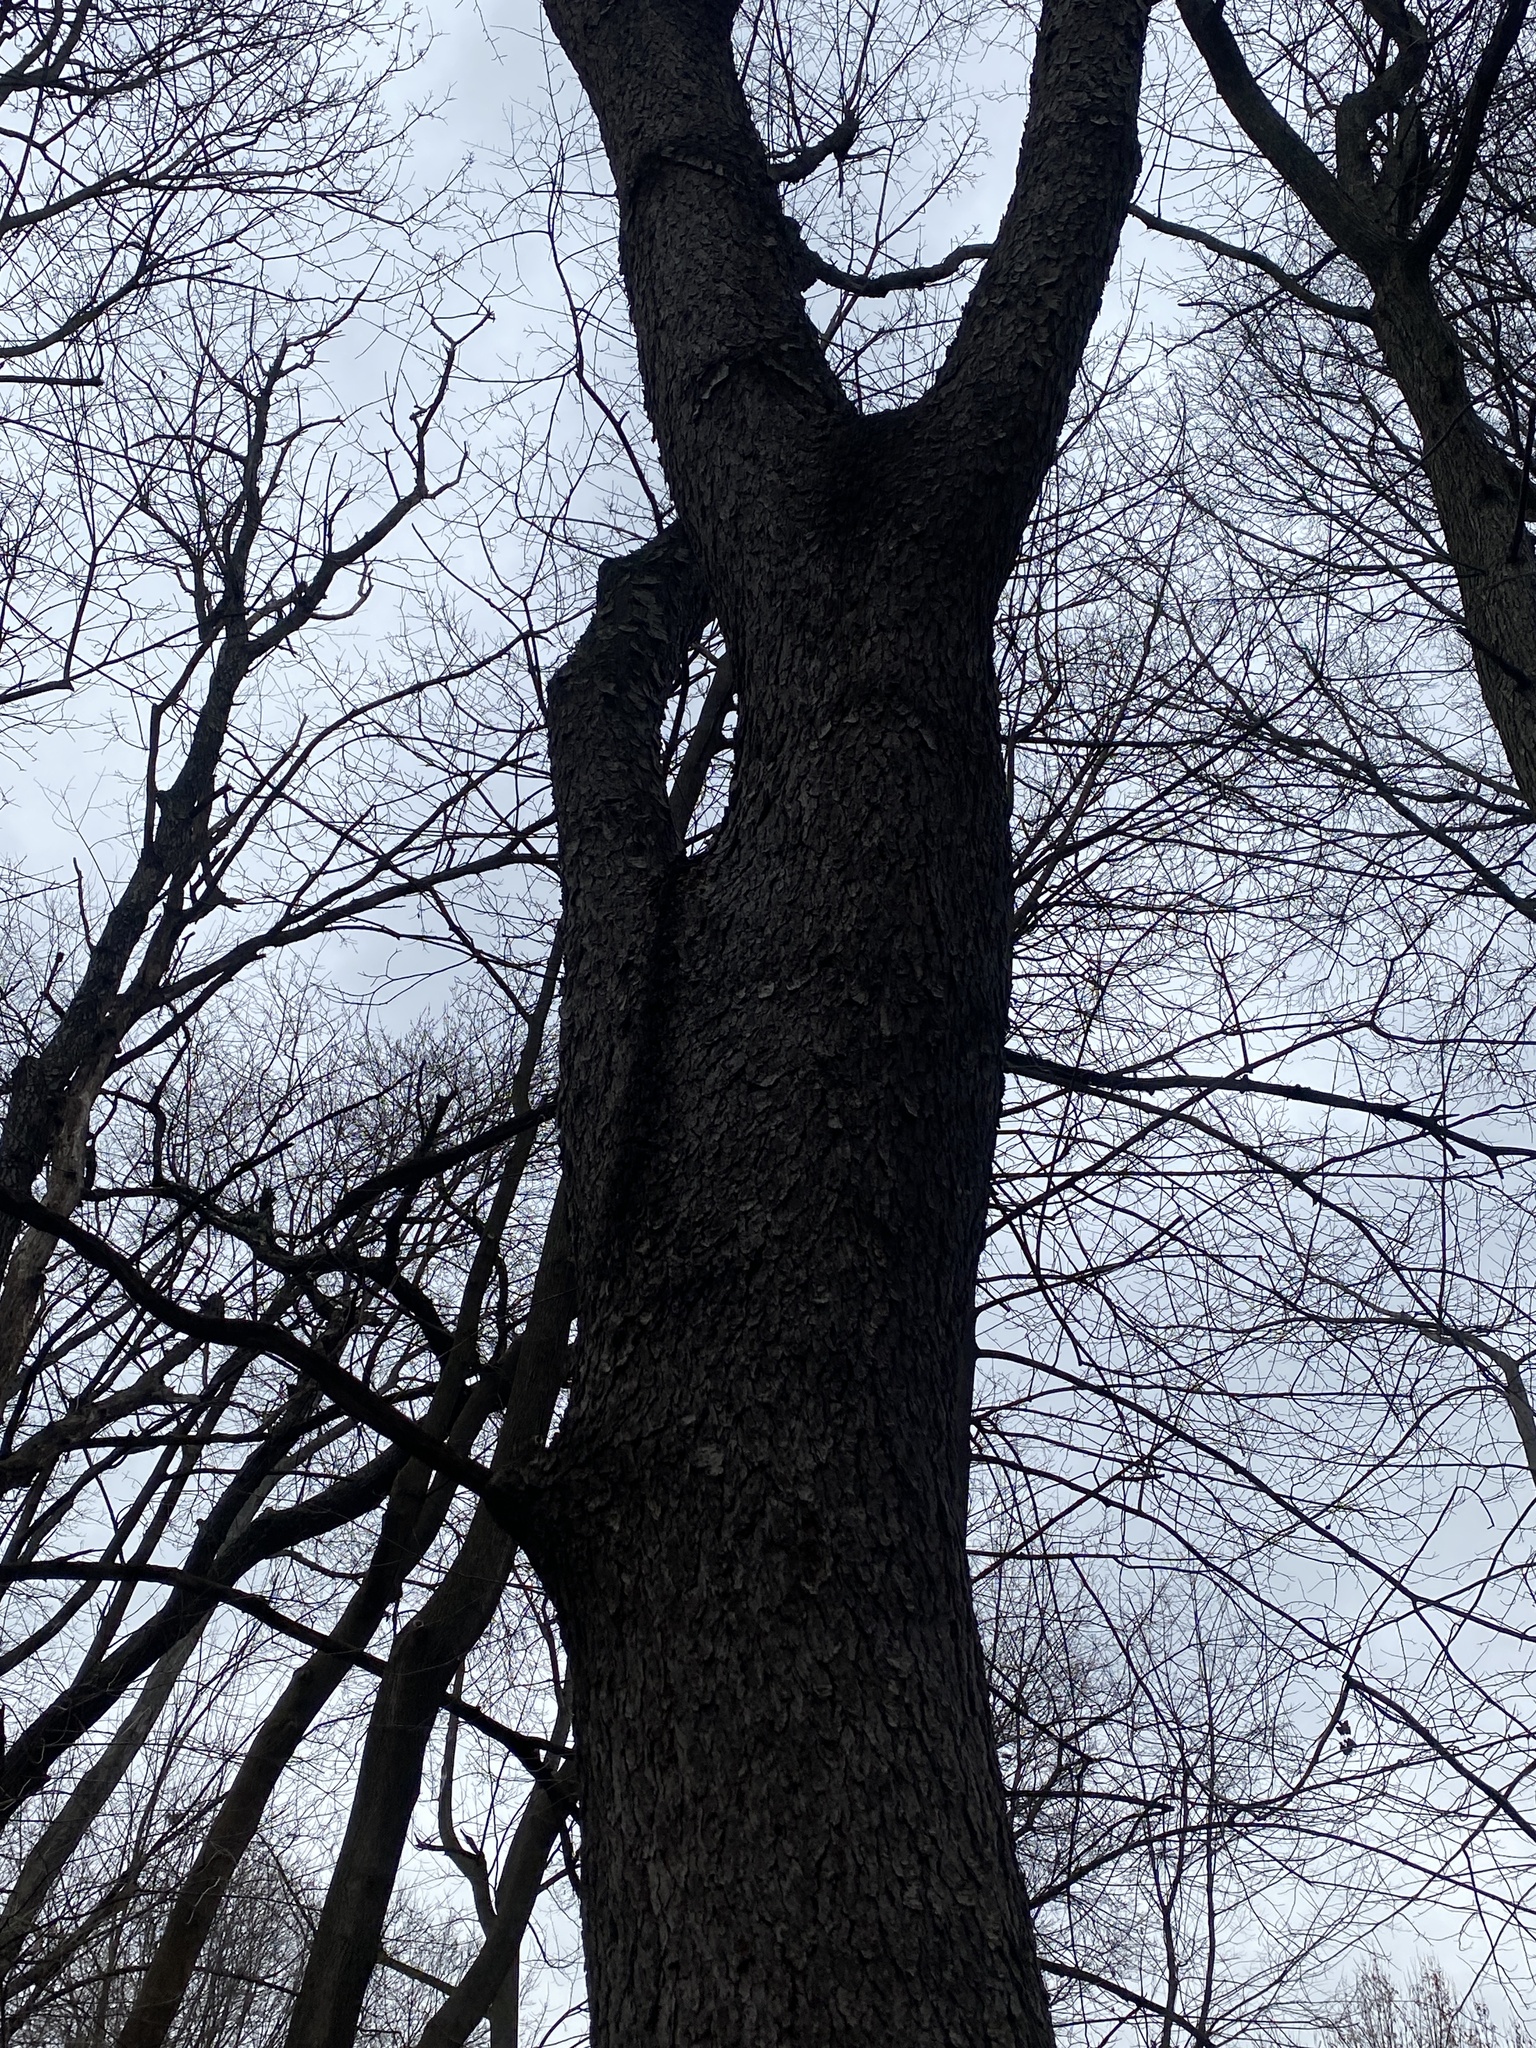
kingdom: Plantae
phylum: Tracheophyta
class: Magnoliopsida
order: Rosales
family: Rosaceae
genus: Prunus
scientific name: Prunus serotina
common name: Black cherry
